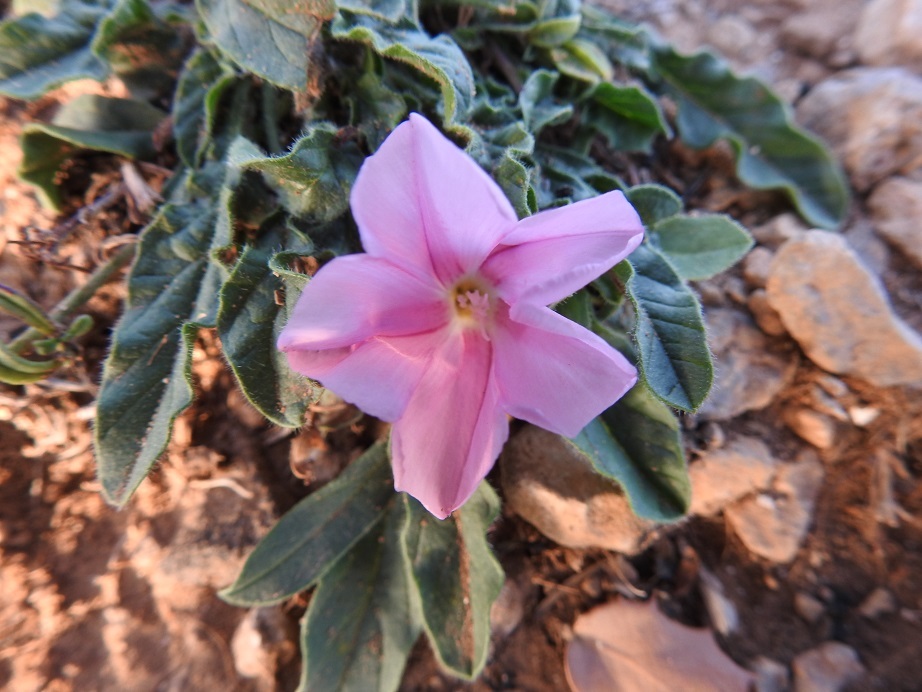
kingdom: Plantae
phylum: Tracheophyta
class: Magnoliopsida
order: Solanales
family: Convolvulaceae
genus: Convolvulus
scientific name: Convolvulus cantabrica
